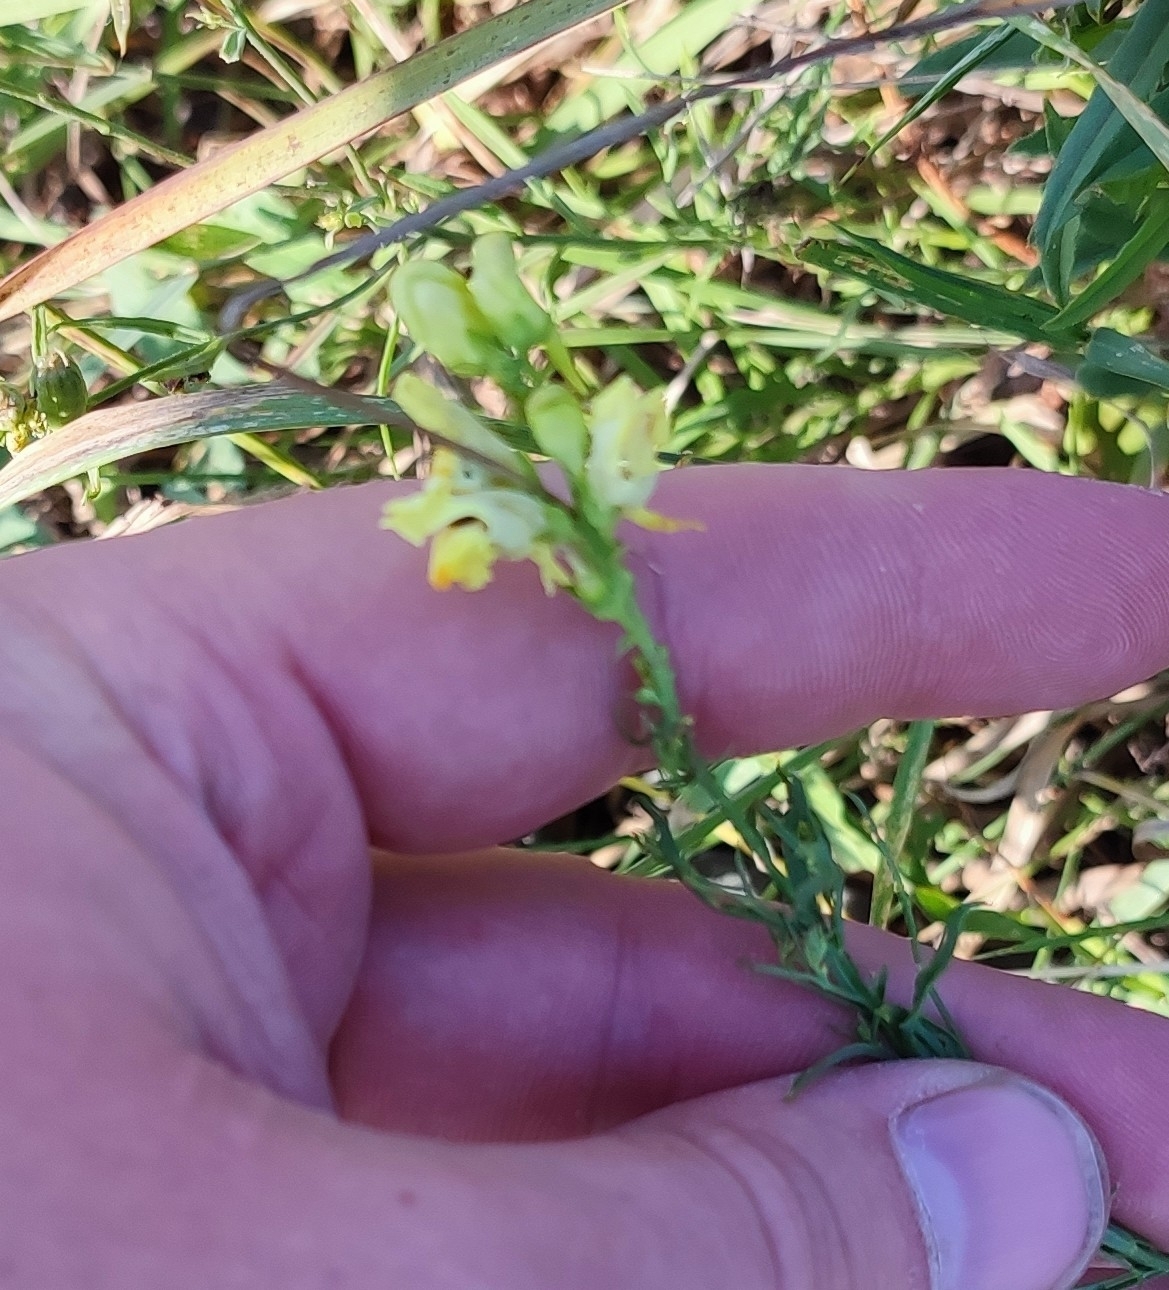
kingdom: Plantae
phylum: Tracheophyta
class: Magnoliopsida
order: Lamiales
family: Plantaginaceae
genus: Linaria
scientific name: Linaria vulgaris
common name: Butter and eggs
